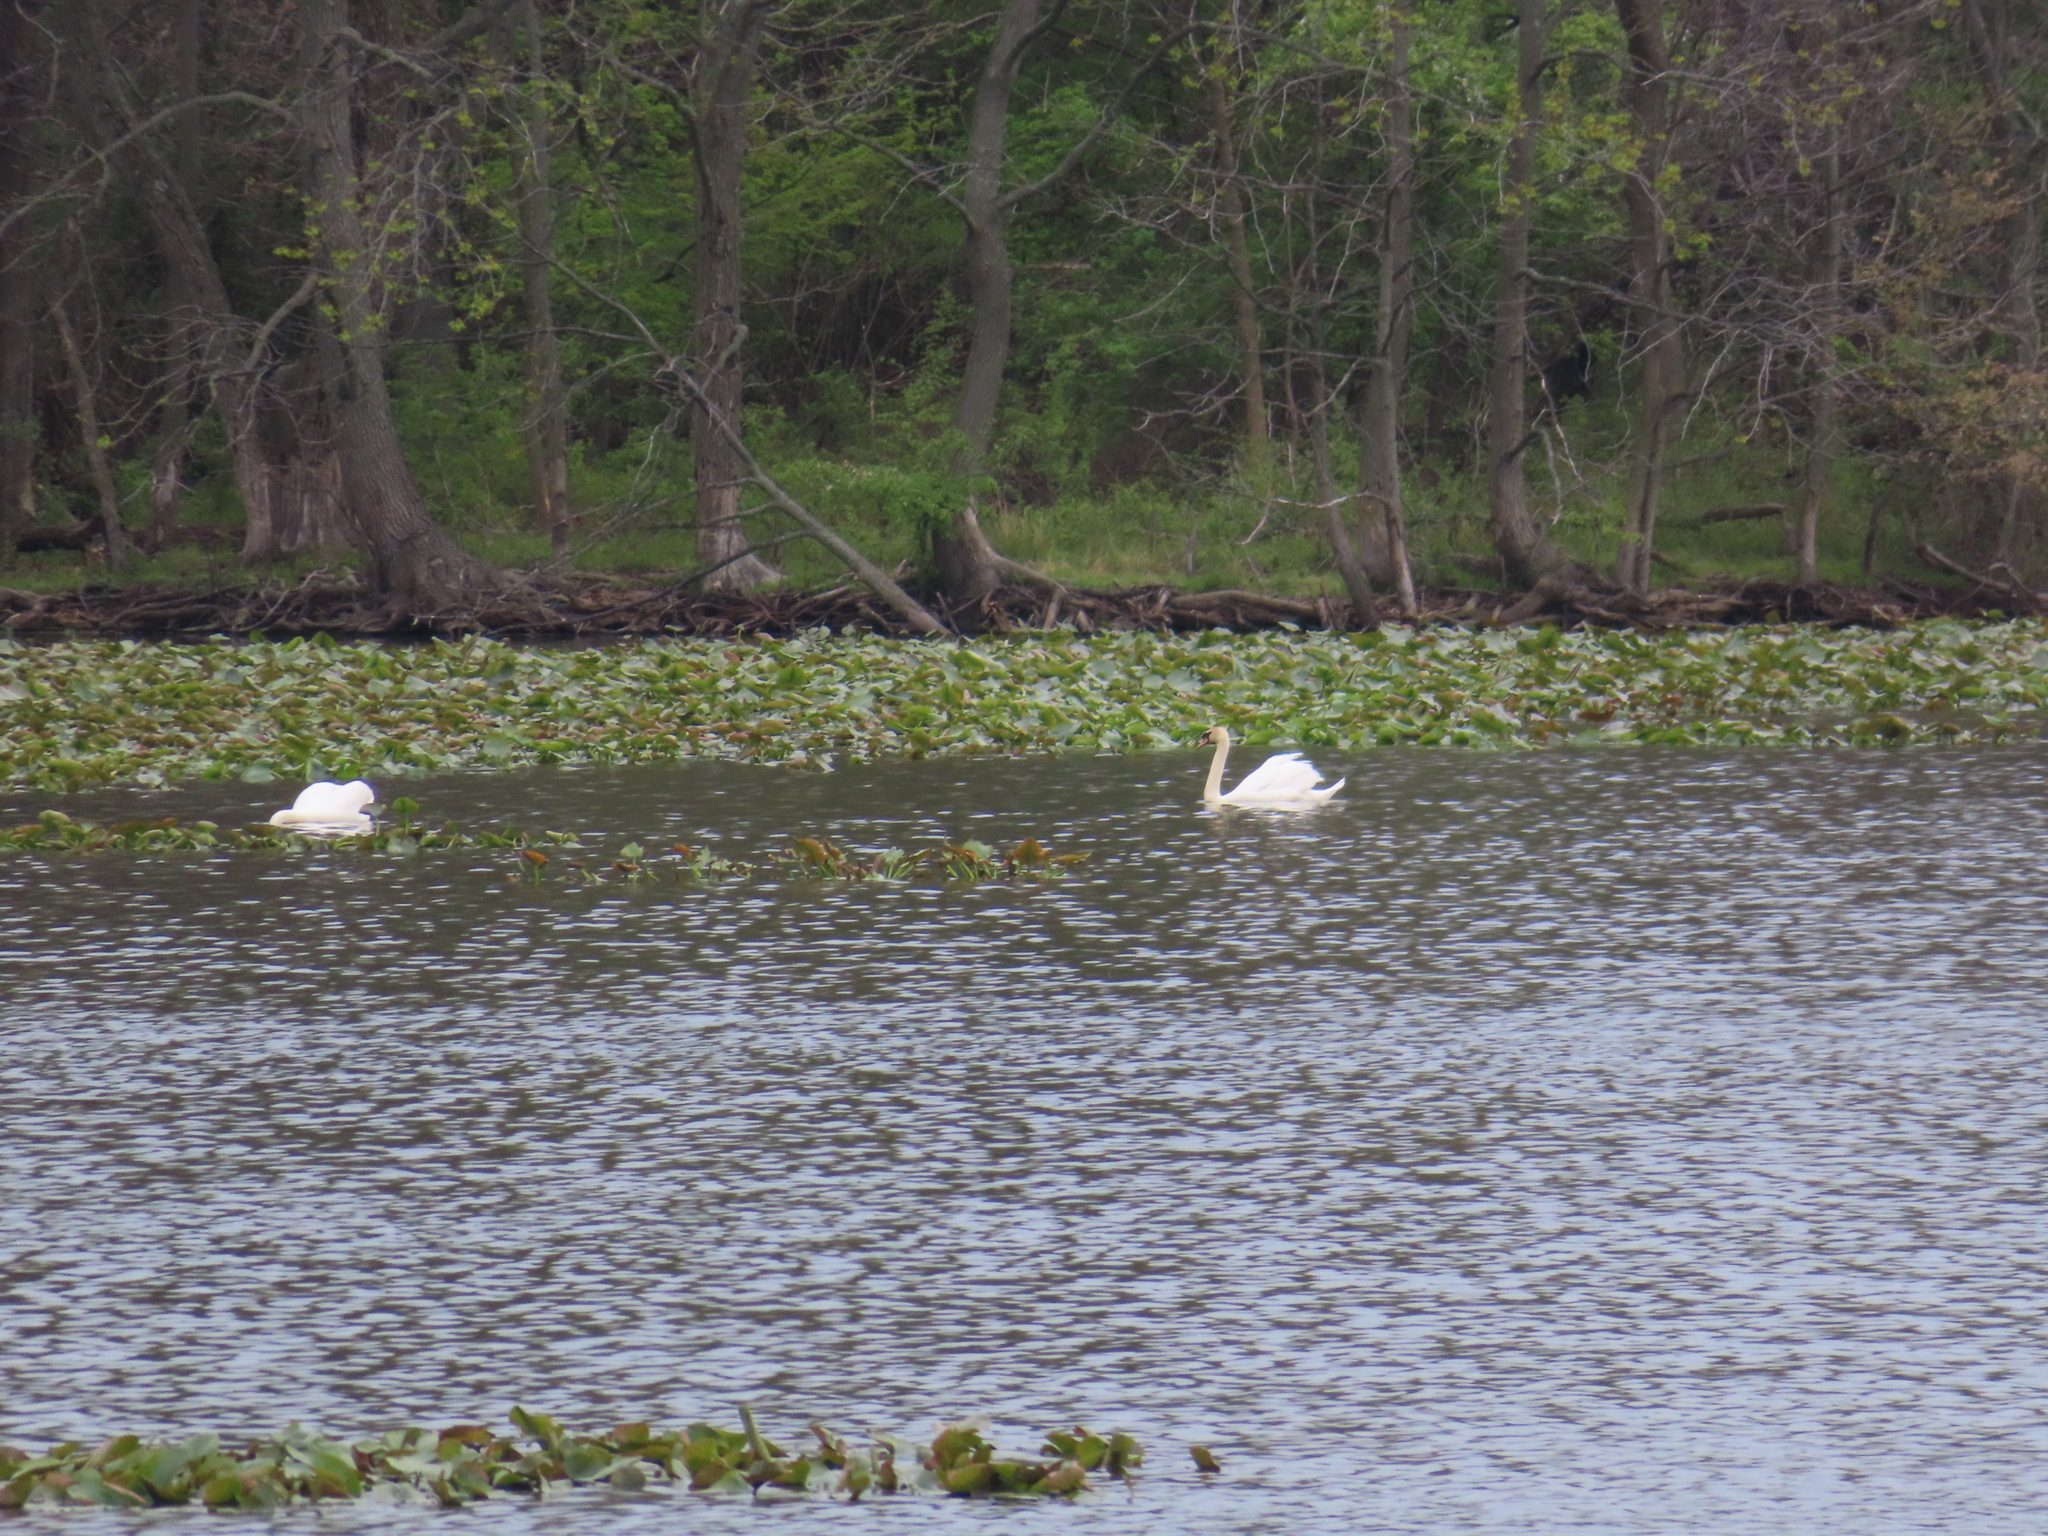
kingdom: Animalia
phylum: Chordata
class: Aves
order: Anseriformes
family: Anatidae
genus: Cygnus
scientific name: Cygnus olor
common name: Mute swan
